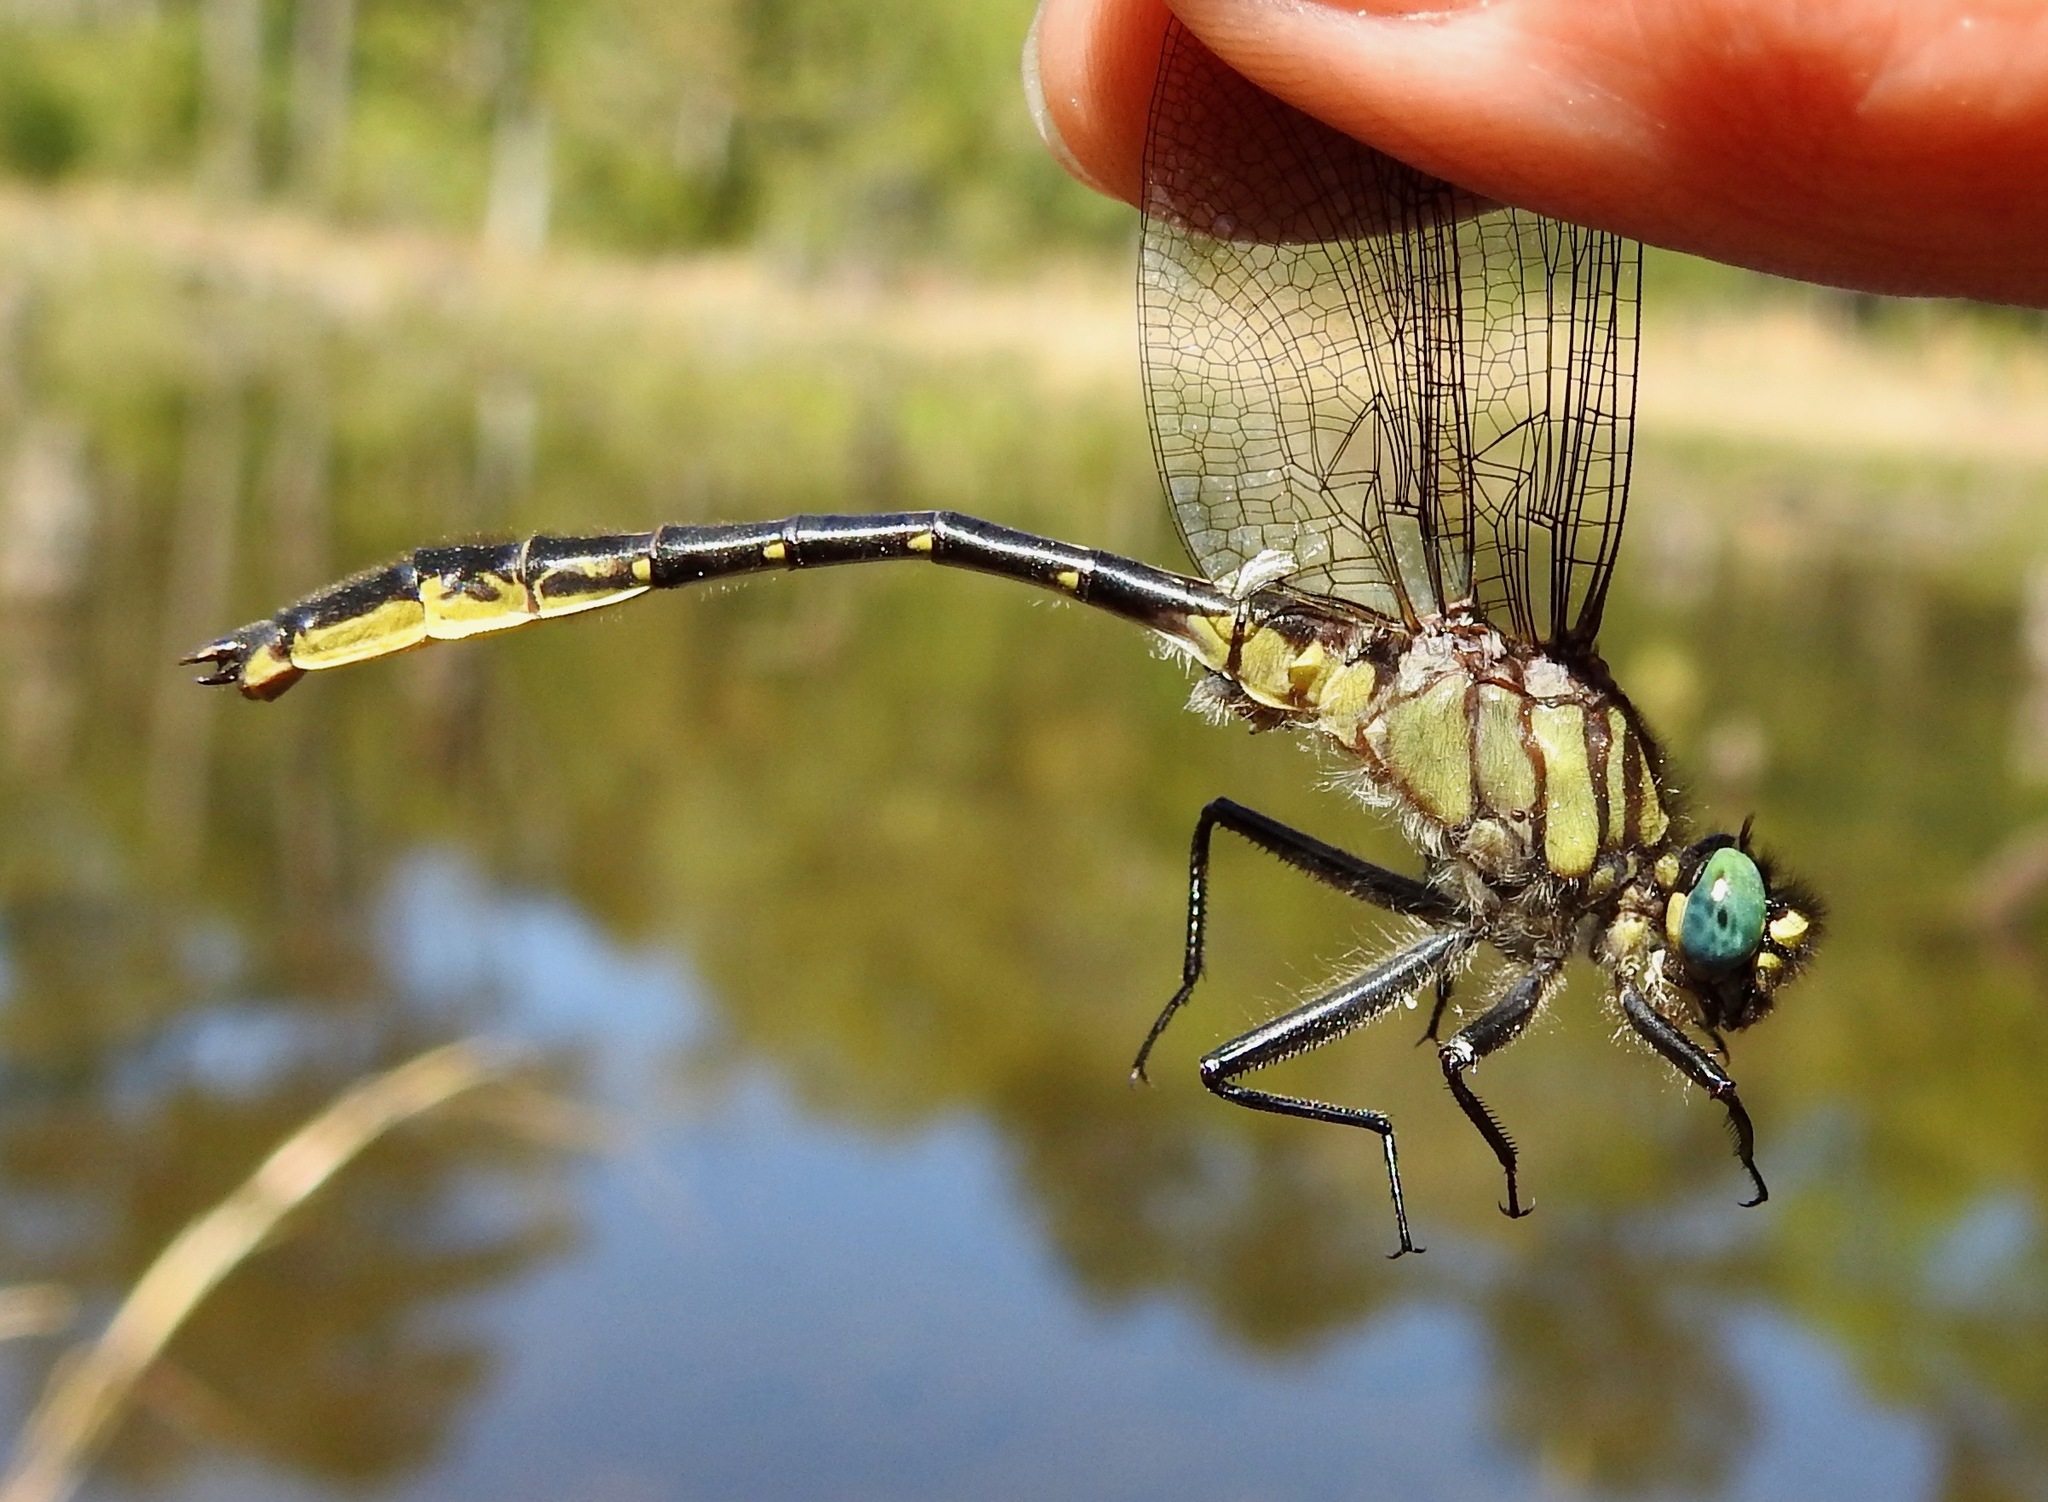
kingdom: Animalia
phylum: Arthropoda
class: Insecta
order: Odonata
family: Gomphidae
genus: Phanogomphus
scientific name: Phanogomphus australis
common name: Clearlake clubtail
